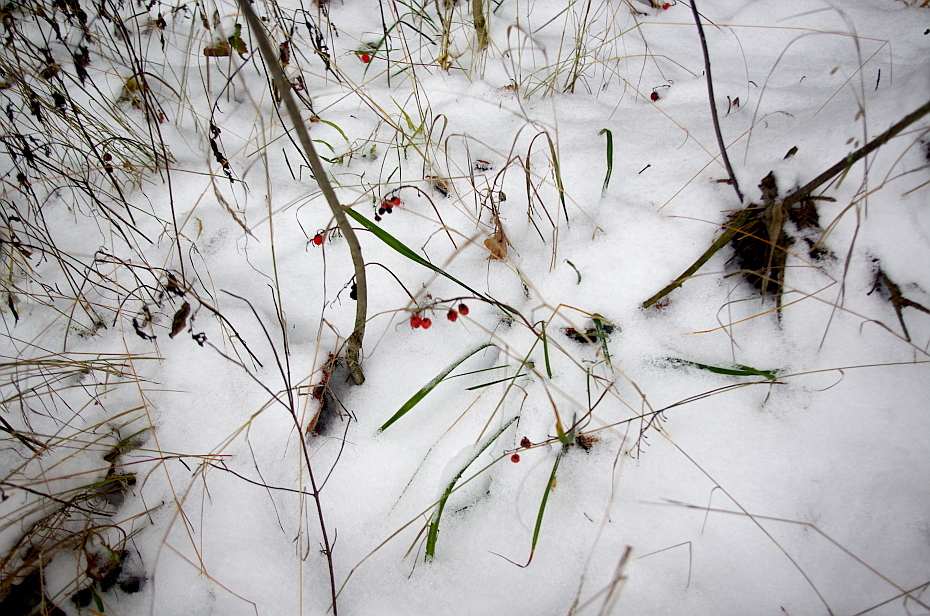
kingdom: Plantae
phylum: Tracheophyta
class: Liliopsida
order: Asparagales
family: Asparagaceae
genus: Convallaria
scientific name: Convallaria majalis
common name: Lily-of-the-valley
